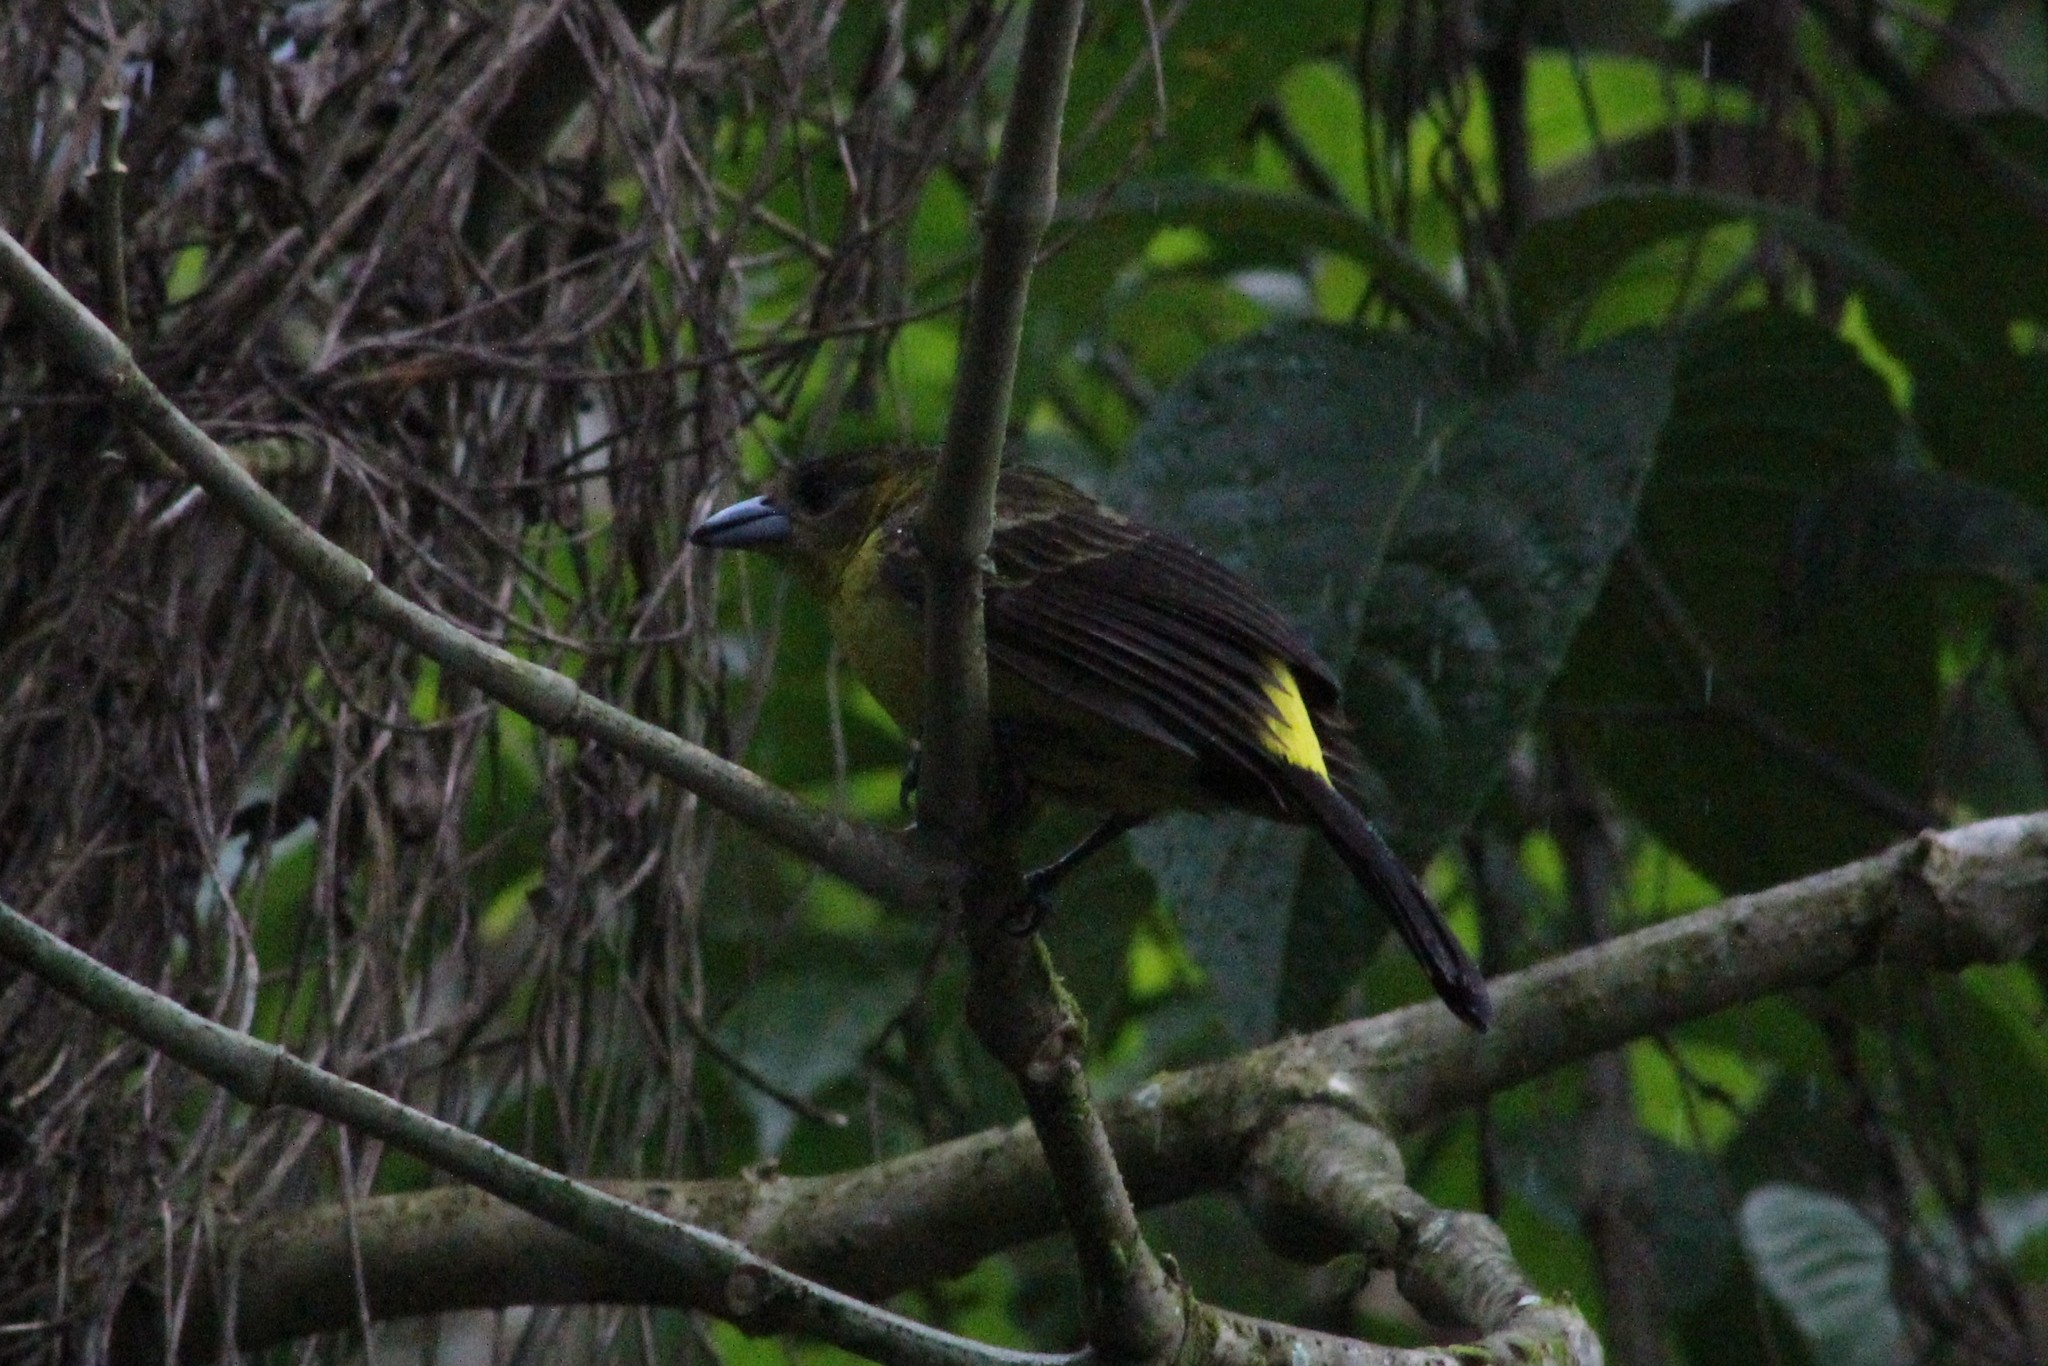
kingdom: Animalia
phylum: Chordata
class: Aves
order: Passeriformes
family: Thraupidae
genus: Ramphocelus
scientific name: Ramphocelus icteronotus
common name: Lemon-rumped tanager
